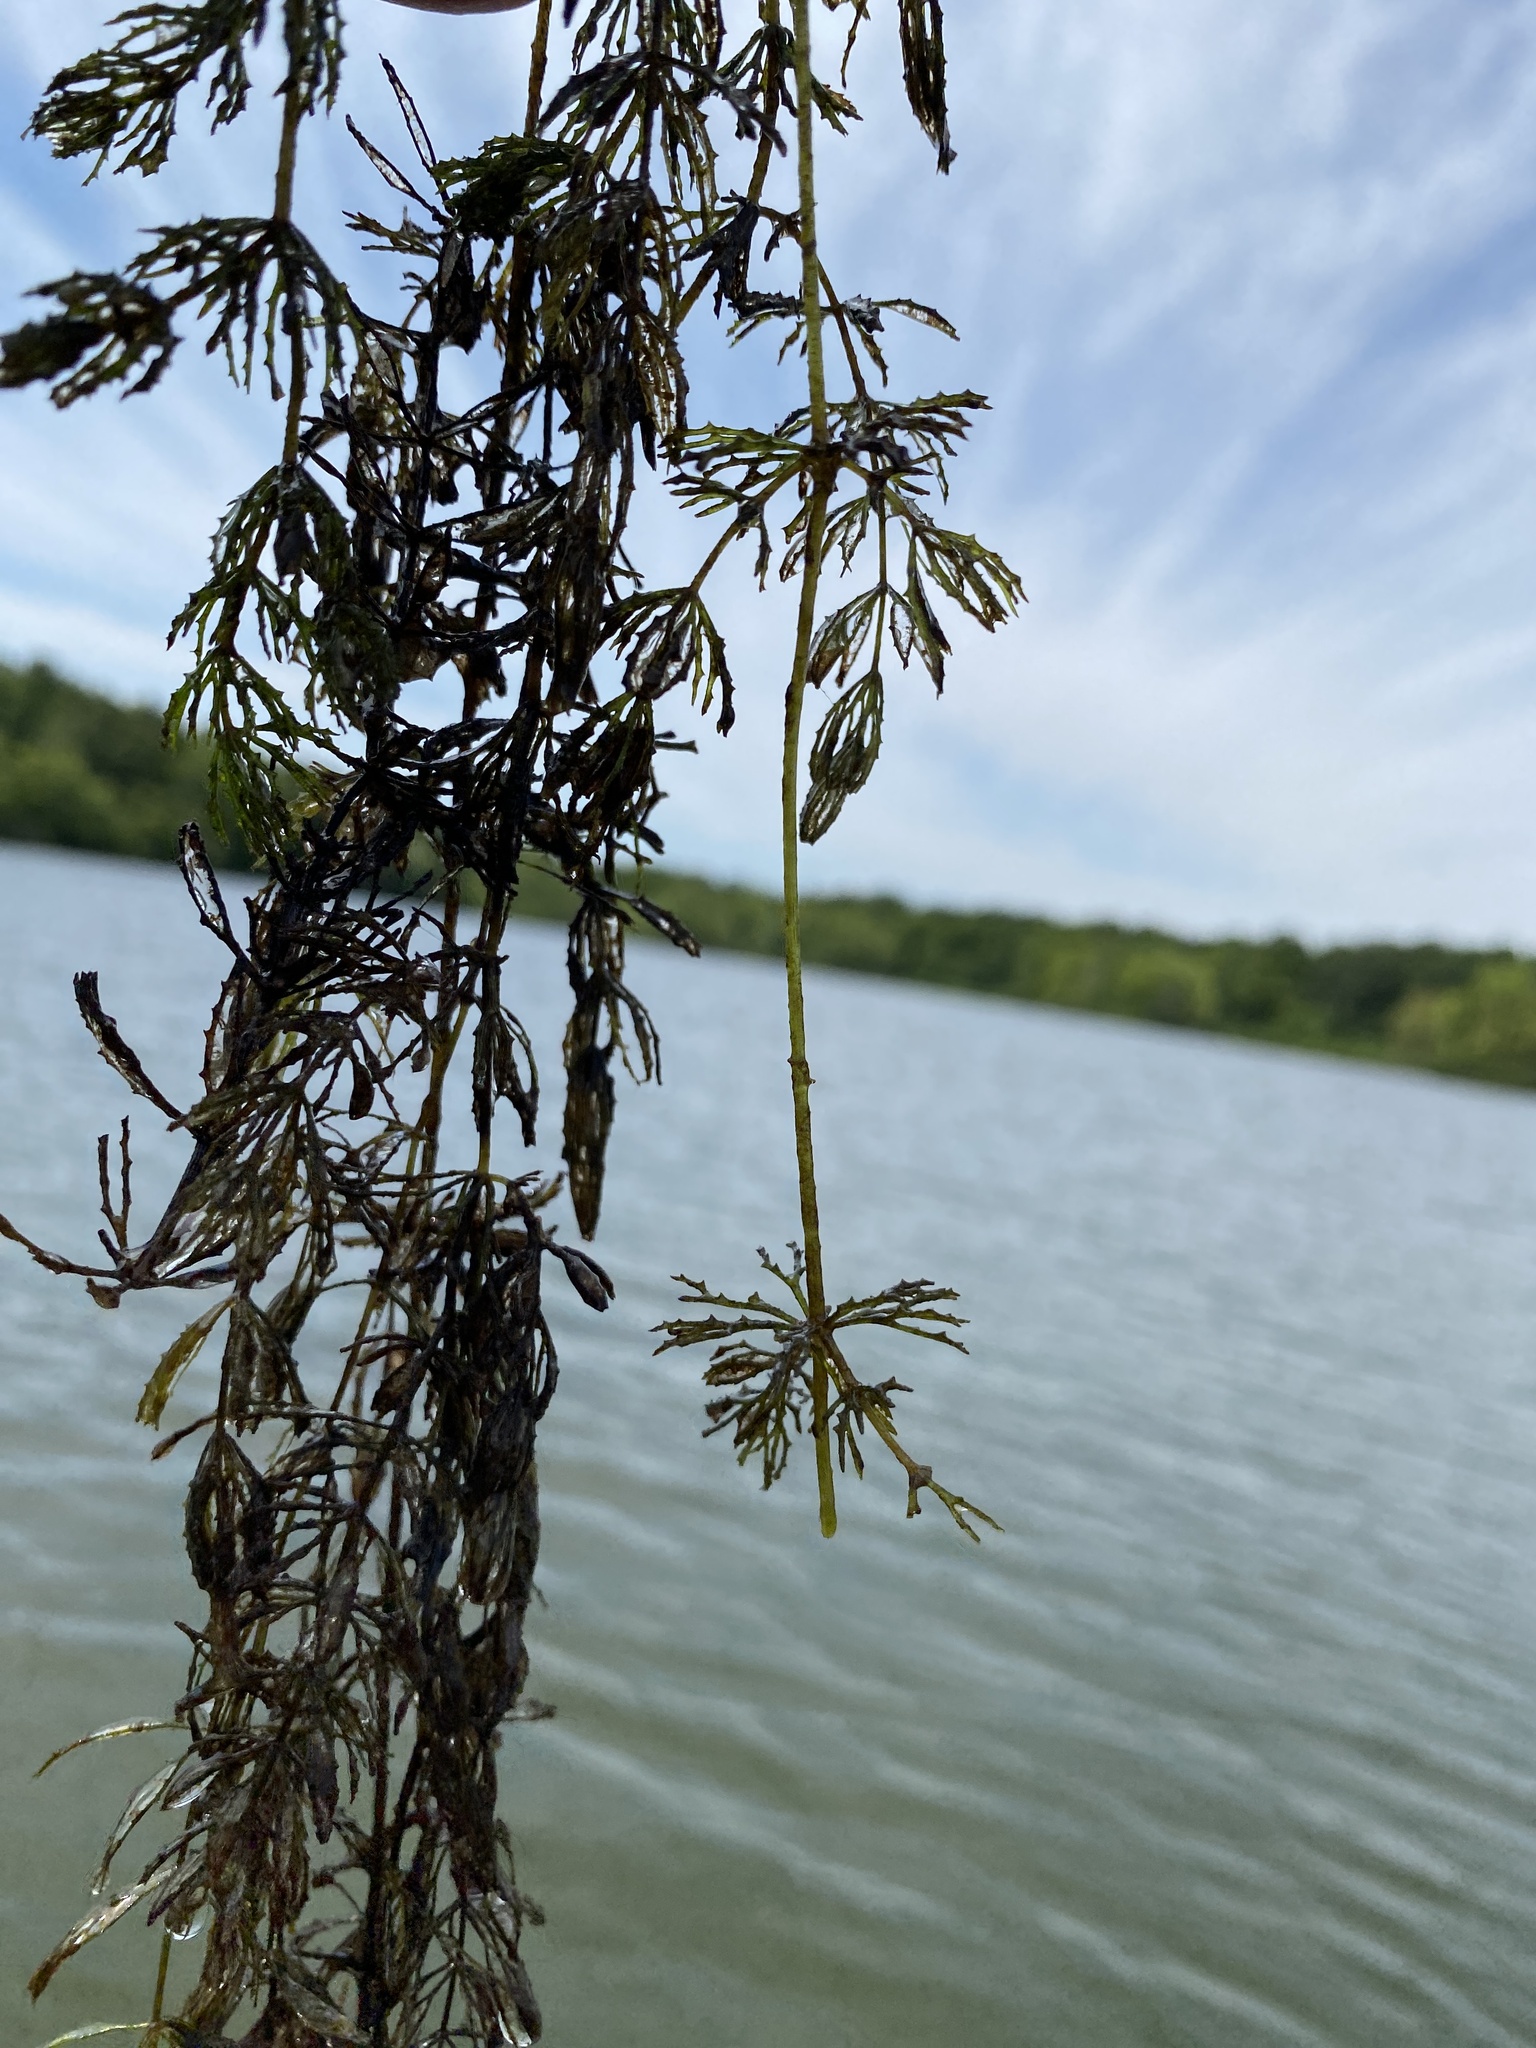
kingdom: Plantae
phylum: Tracheophyta
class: Magnoliopsida
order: Ceratophyllales
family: Ceratophyllaceae
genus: Ceratophyllum
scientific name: Ceratophyllum demersum
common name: Rigid hornwort
